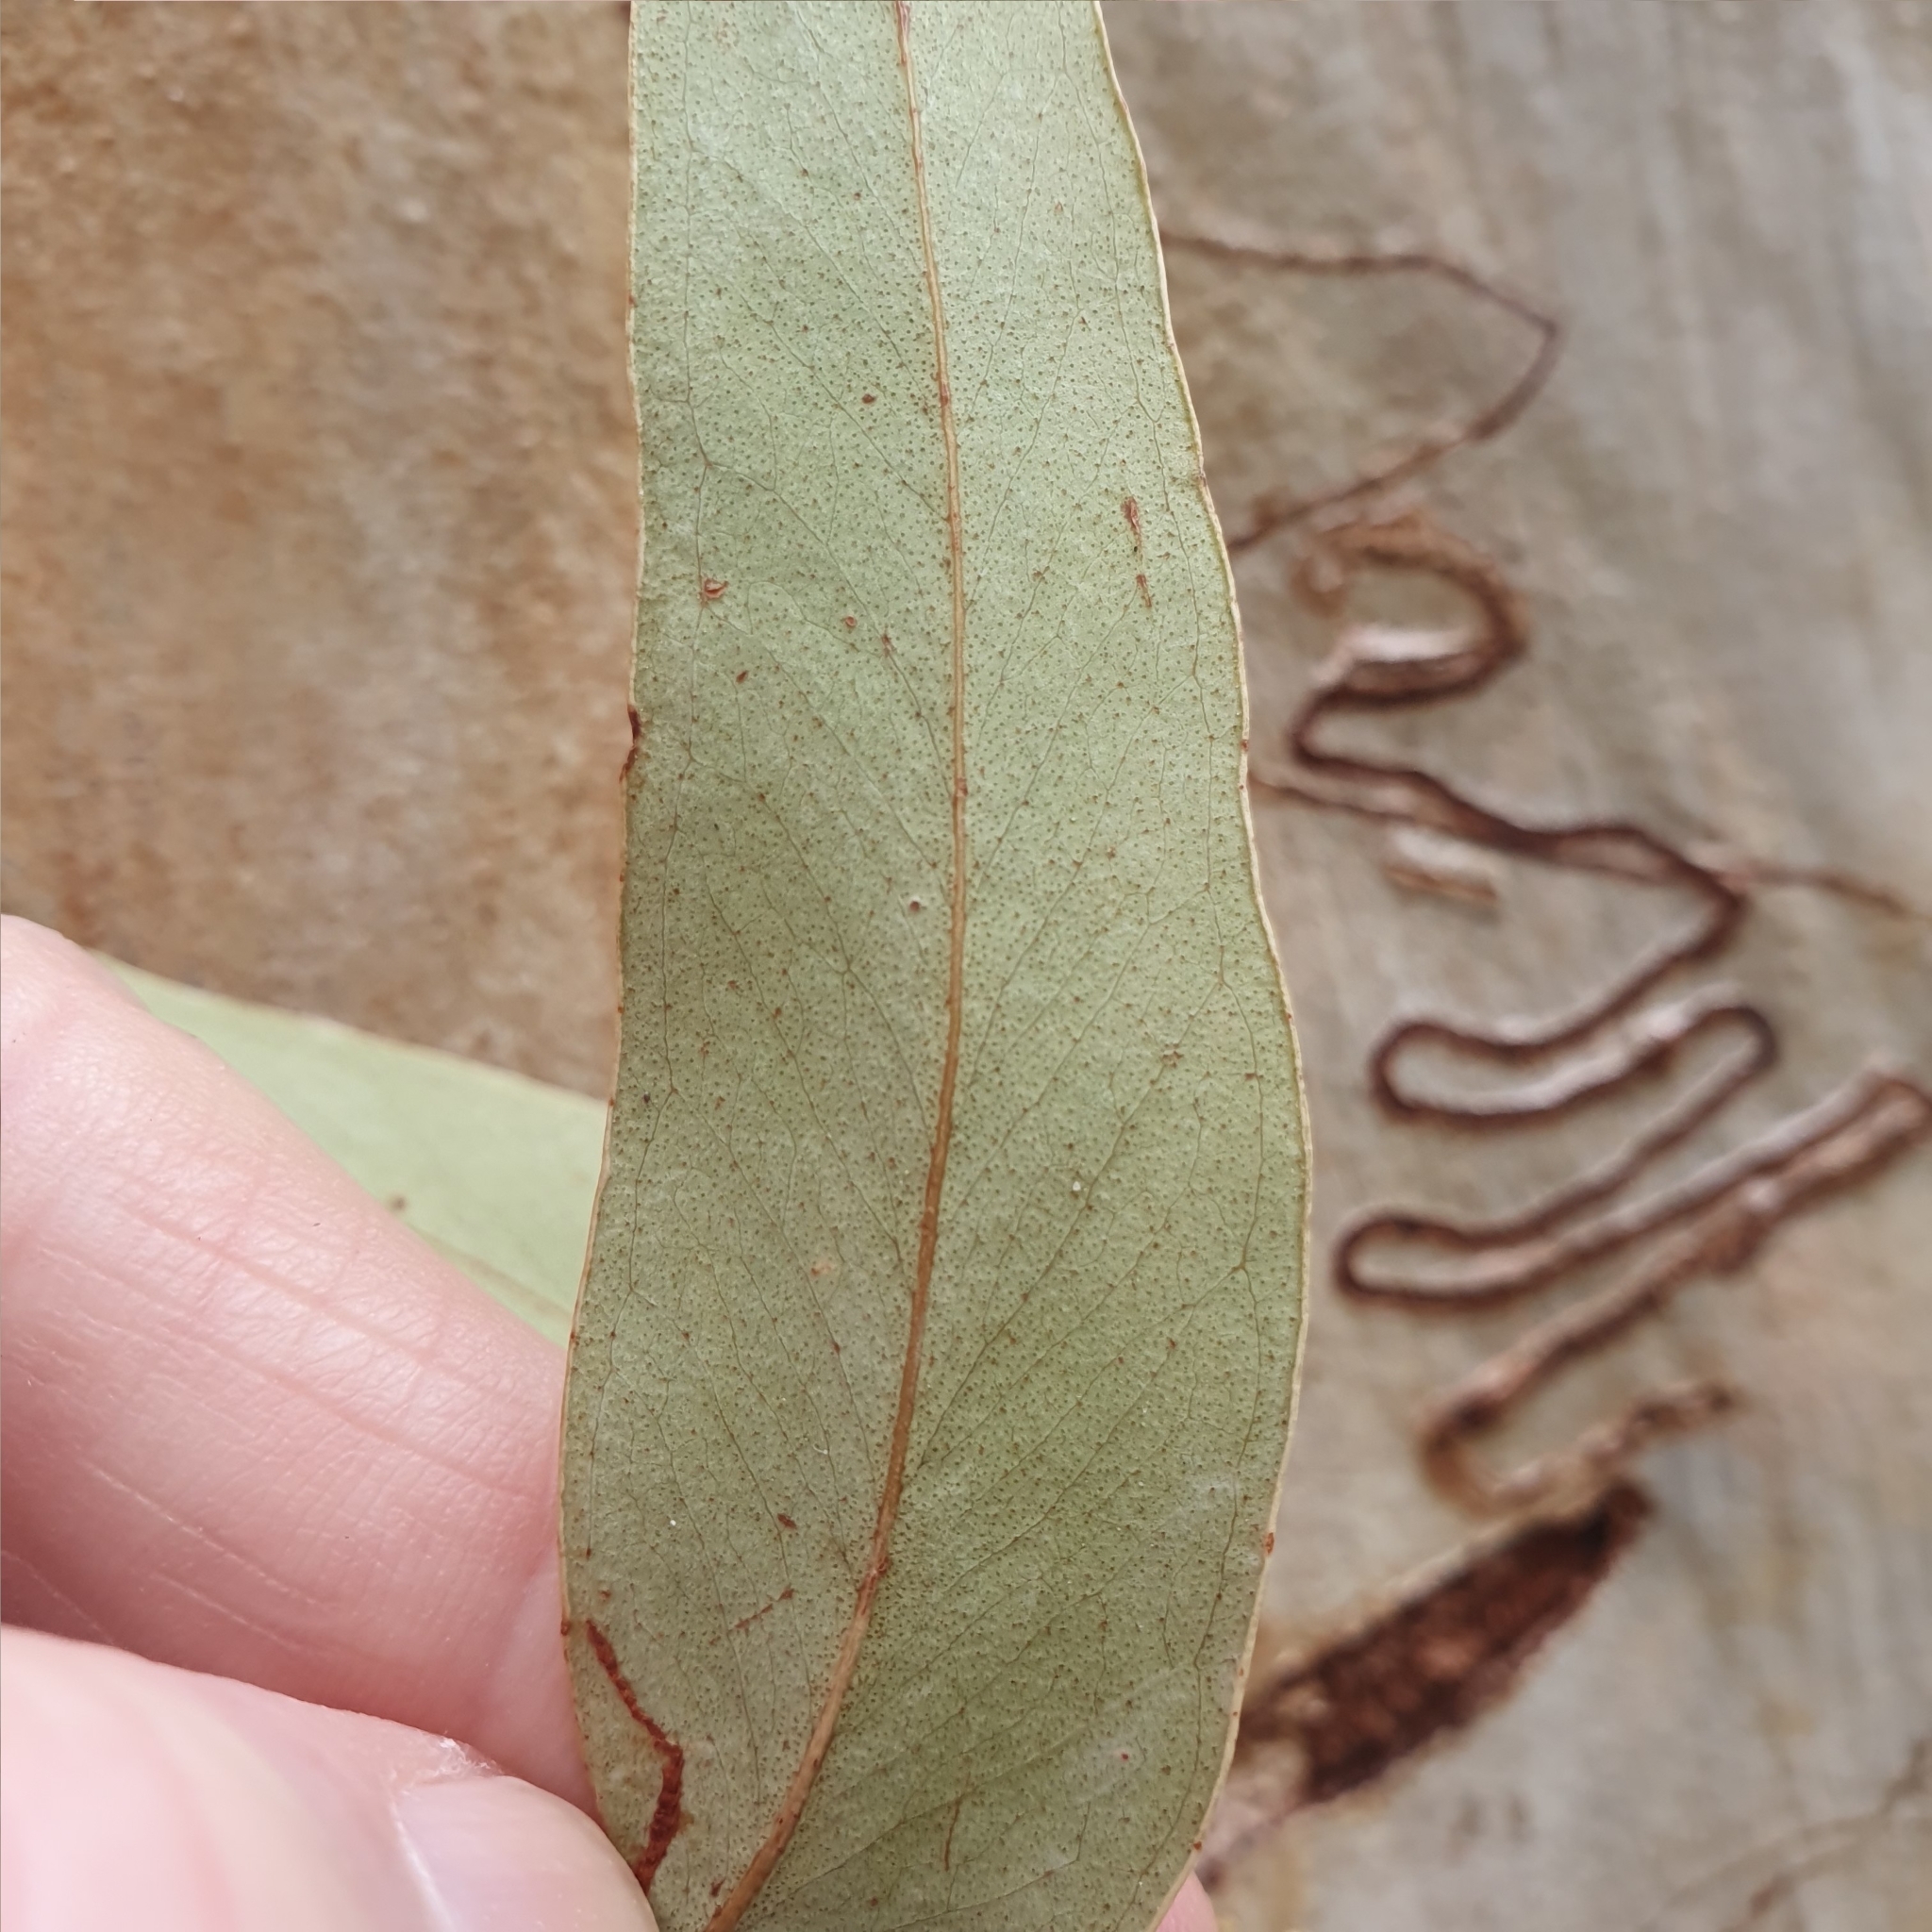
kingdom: Plantae
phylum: Tracheophyta
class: Magnoliopsida
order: Myrtales
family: Myrtaceae
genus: Eucalyptus
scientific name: Eucalyptus racemosa
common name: Scribbly gum
